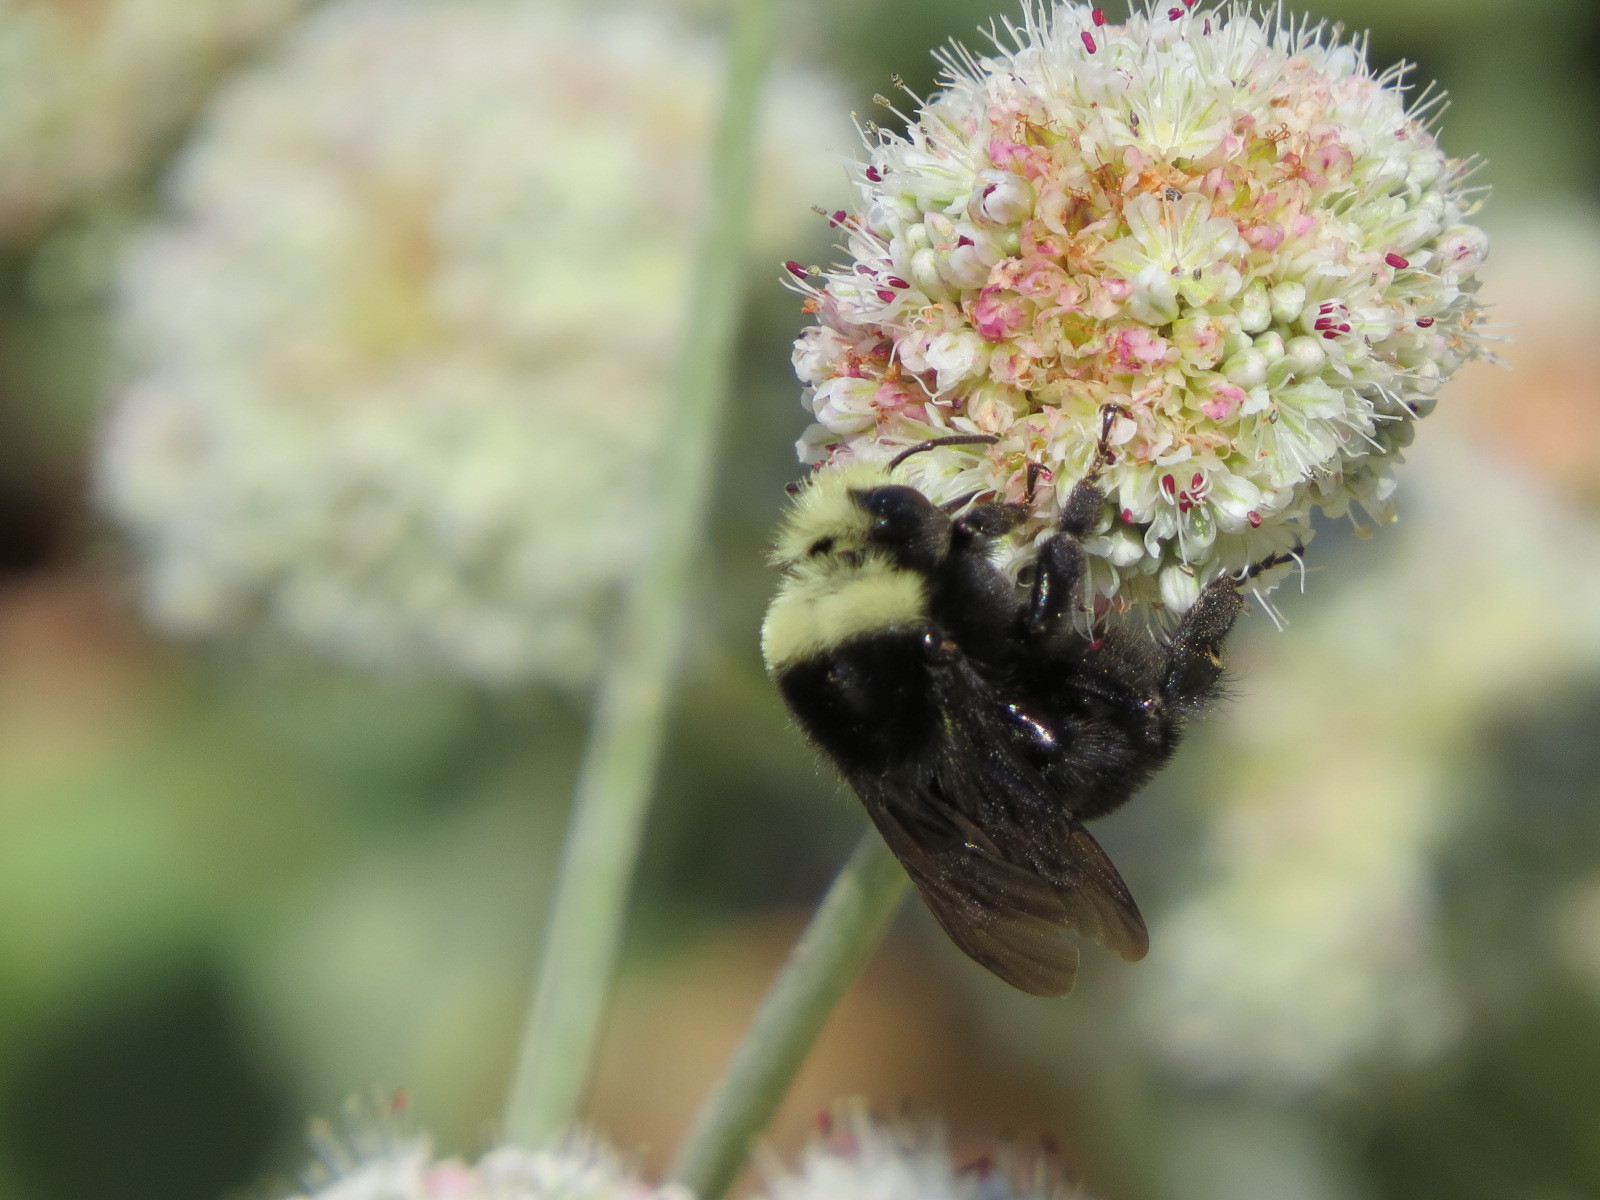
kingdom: Animalia
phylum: Arthropoda
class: Insecta
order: Hymenoptera
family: Apidae
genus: Bombus
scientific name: Bombus vosnesenskii
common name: Vosnesensky bumble bee
